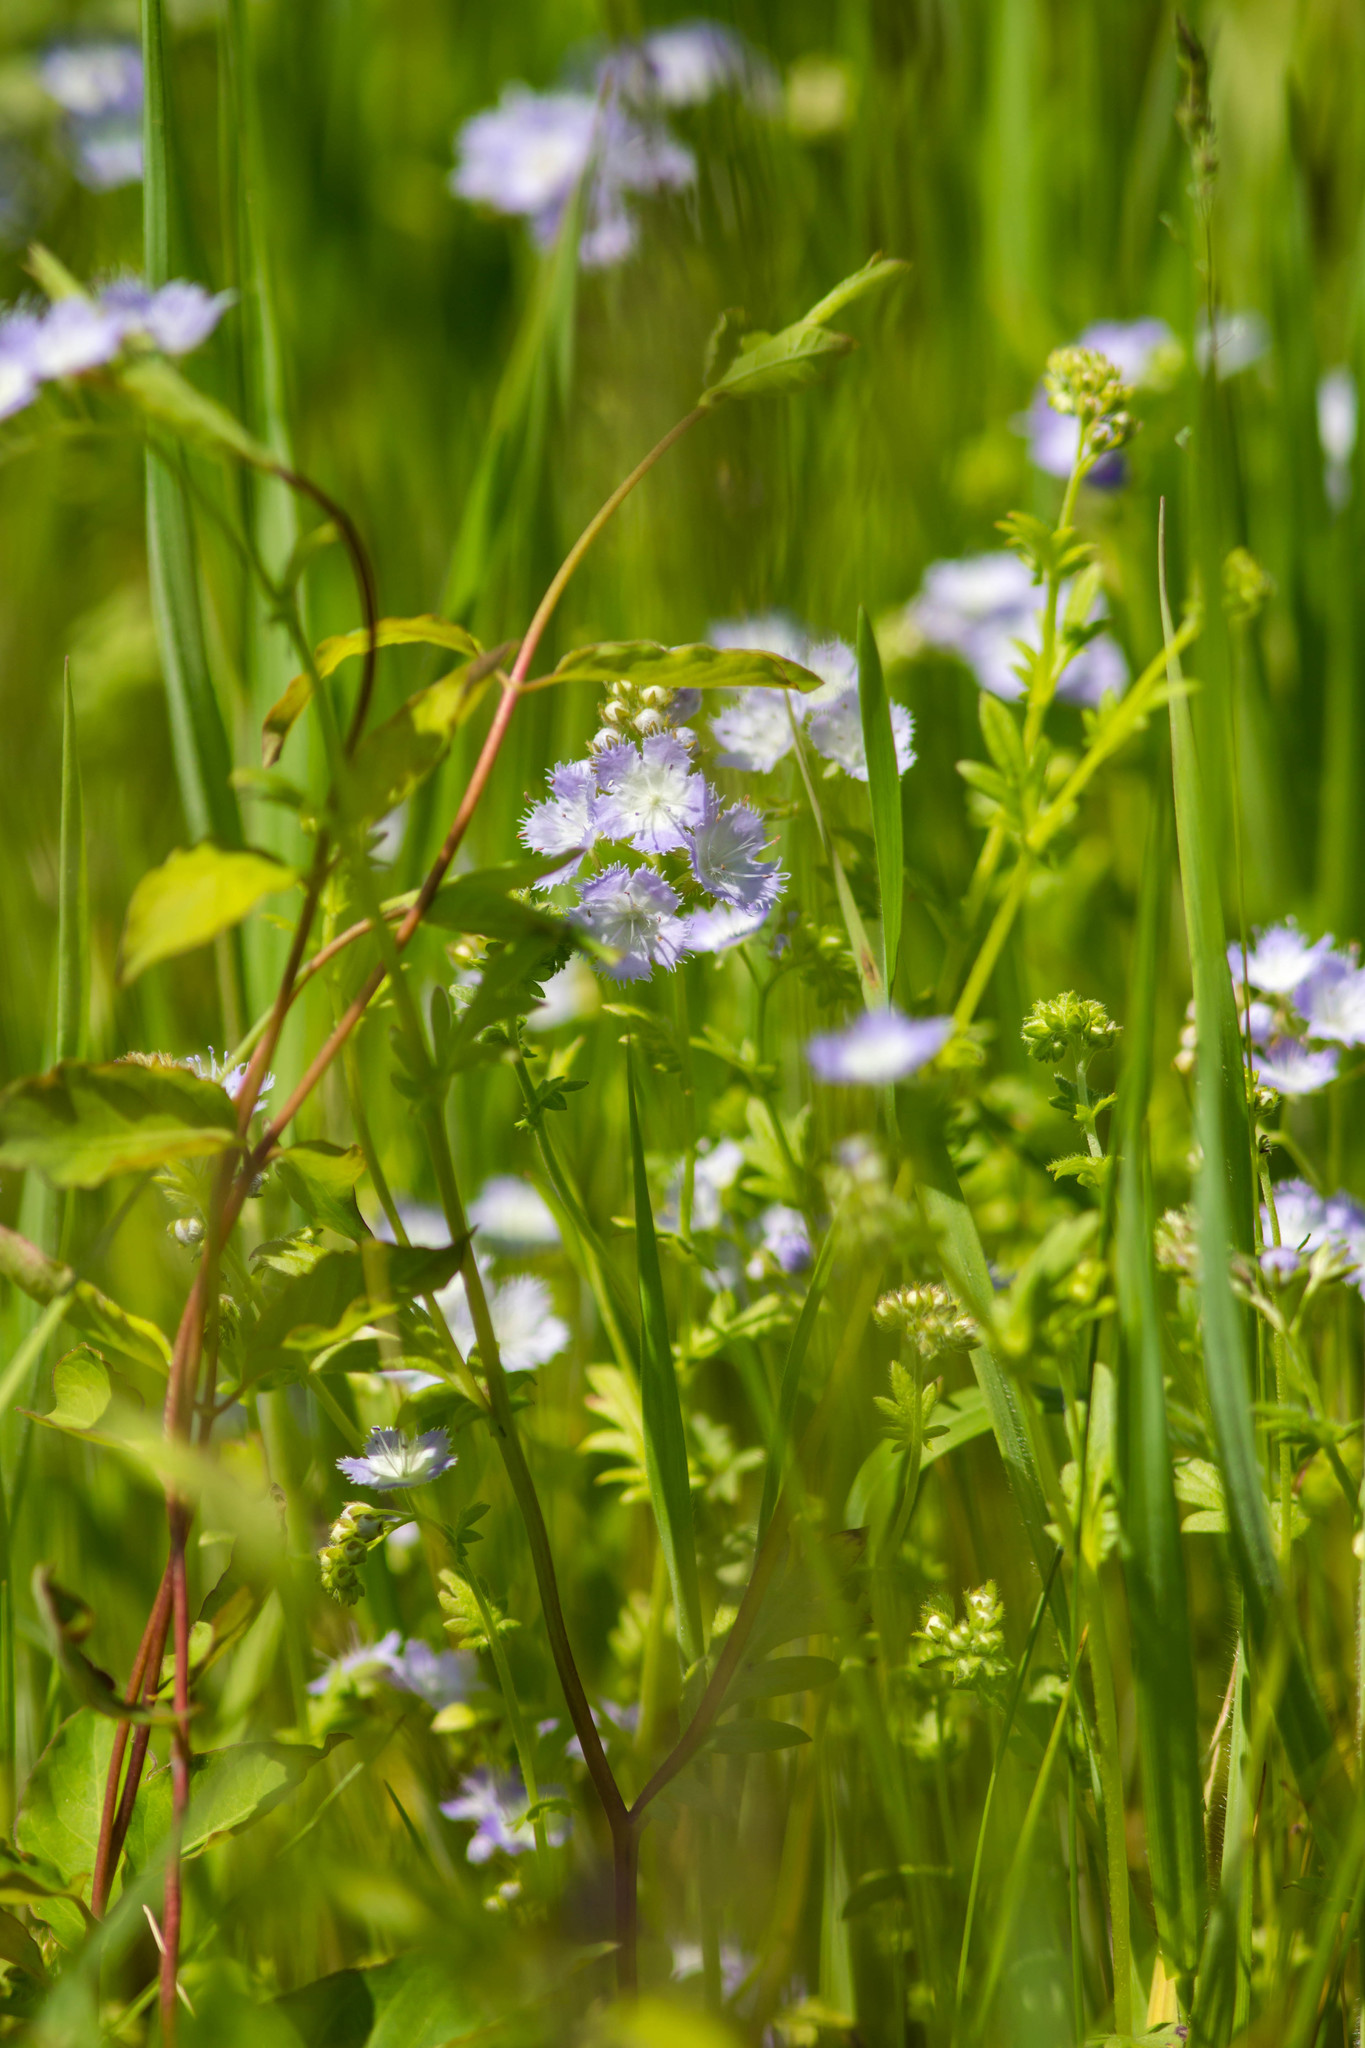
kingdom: Plantae
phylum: Tracheophyta
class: Magnoliopsida
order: Boraginales
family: Hydrophyllaceae
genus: Phacelia
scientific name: Phacelia purshii
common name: Miami-mist
